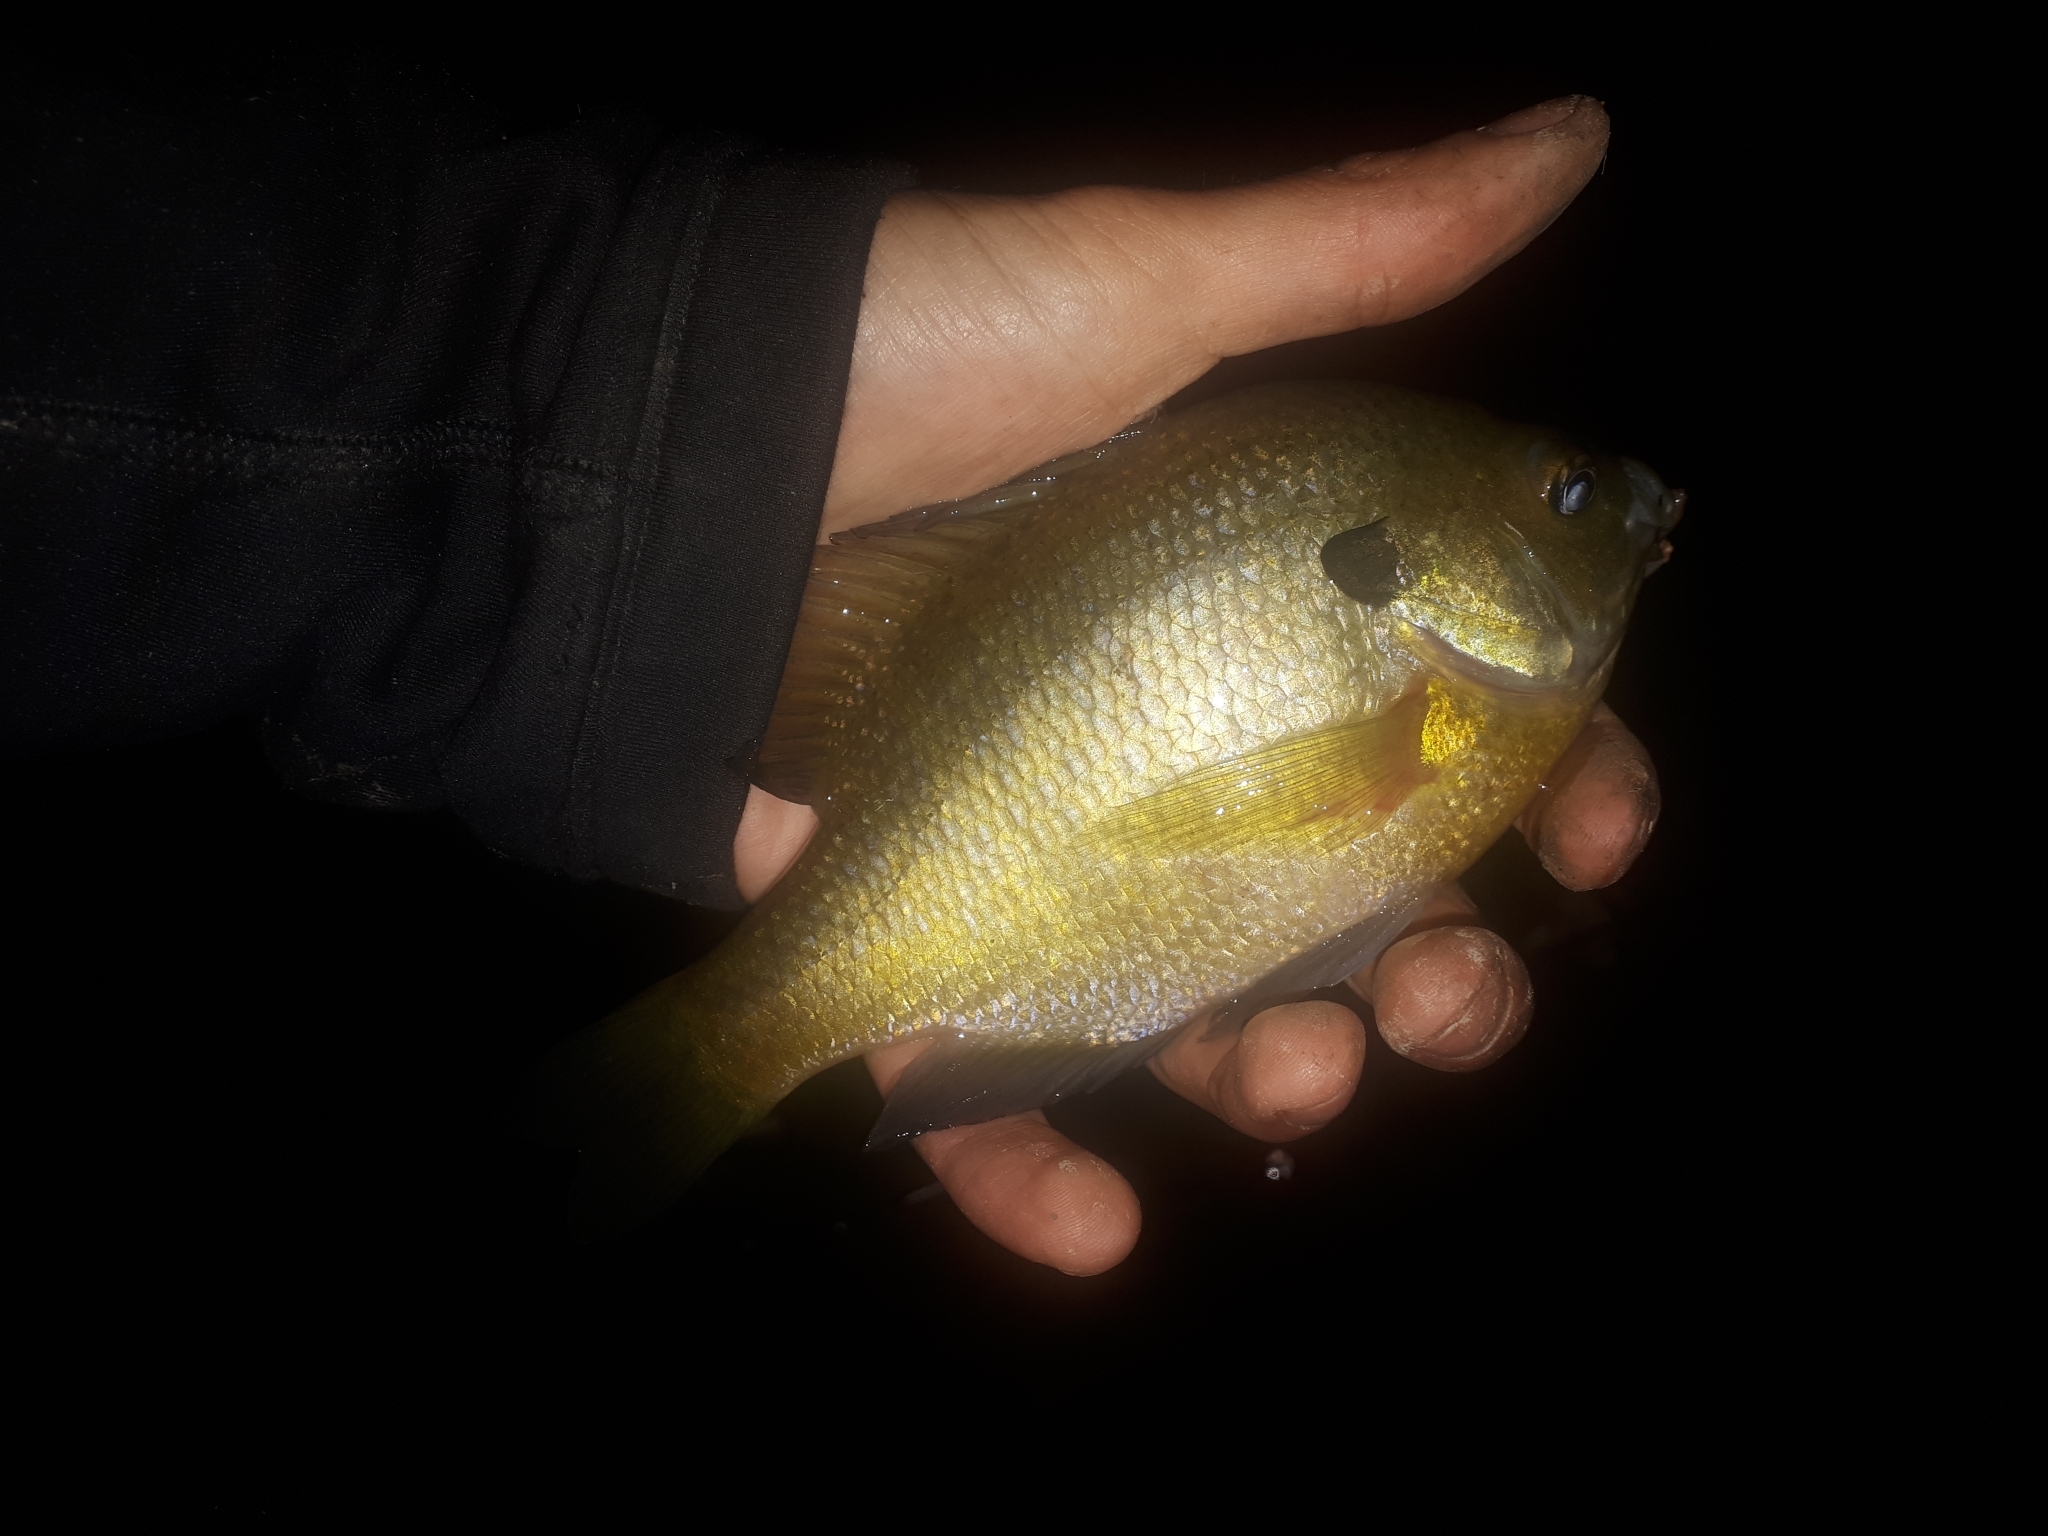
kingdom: Animalia
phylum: Chordata
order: Perciformes
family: Centrarchidae
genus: Lepomis
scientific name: Lepomis macrochirus
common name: Bluegill
